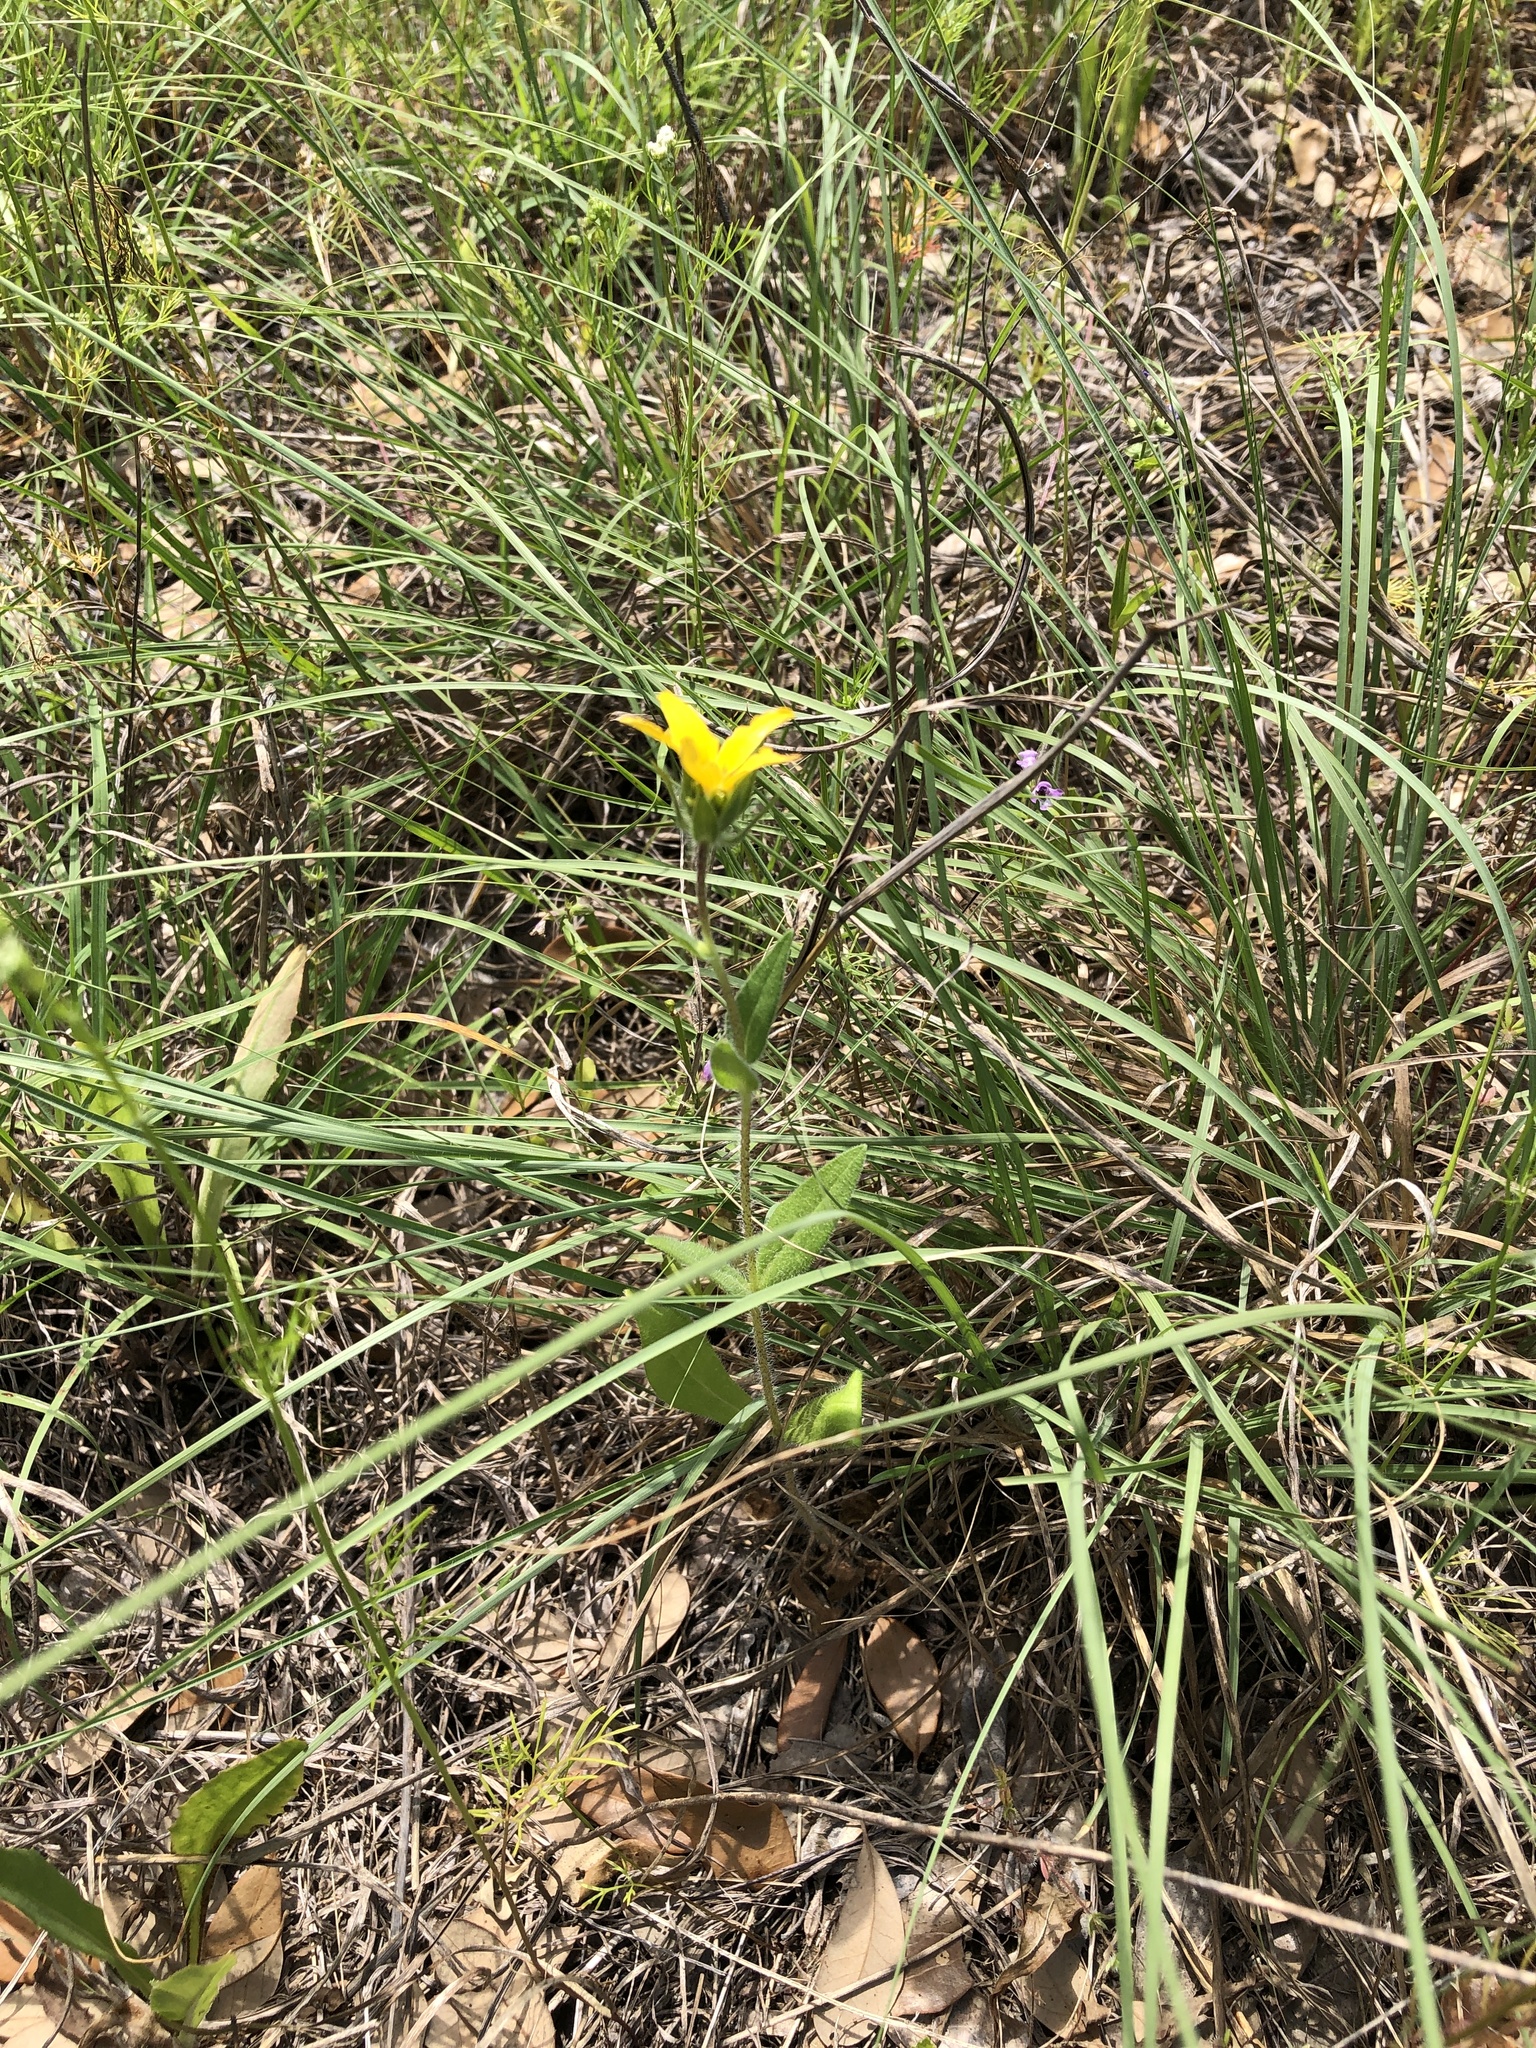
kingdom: Plantae
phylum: Tracheophyta
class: Magnoliopsida
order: Asterales
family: Asteraceae
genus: Lindheimera
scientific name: Lindheimera texana
